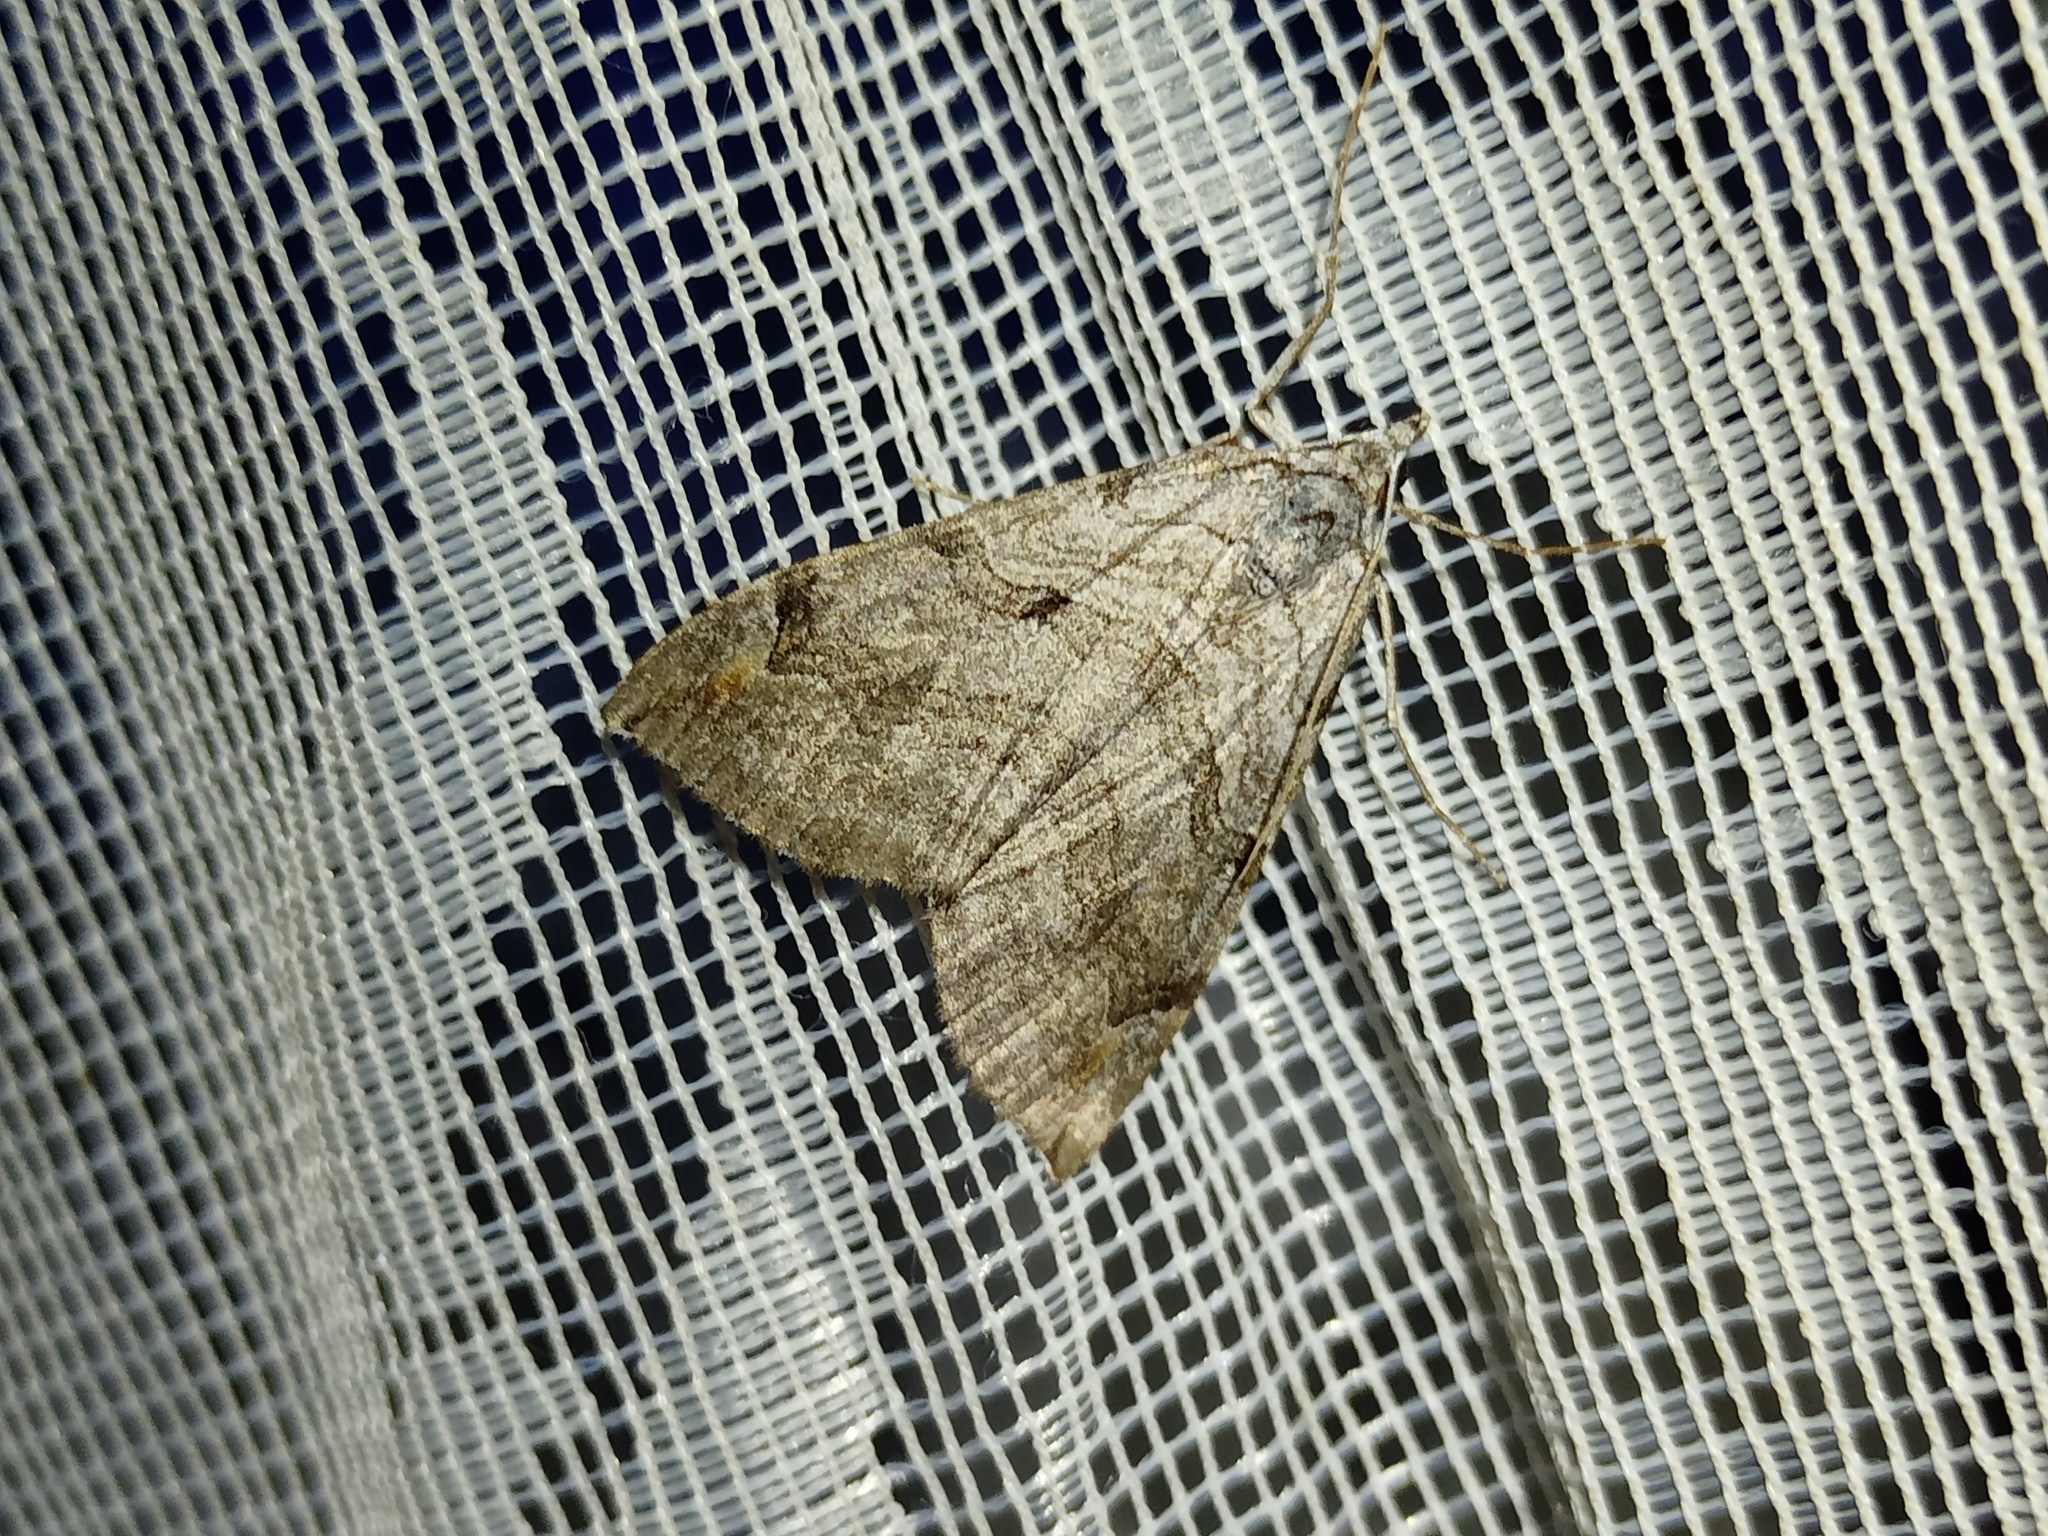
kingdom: Animalia
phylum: Arthropoda
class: Insecta
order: Lepidoptera
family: Geometridae
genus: Aplocera
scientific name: Aplocera plagiata
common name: Treble-bar
